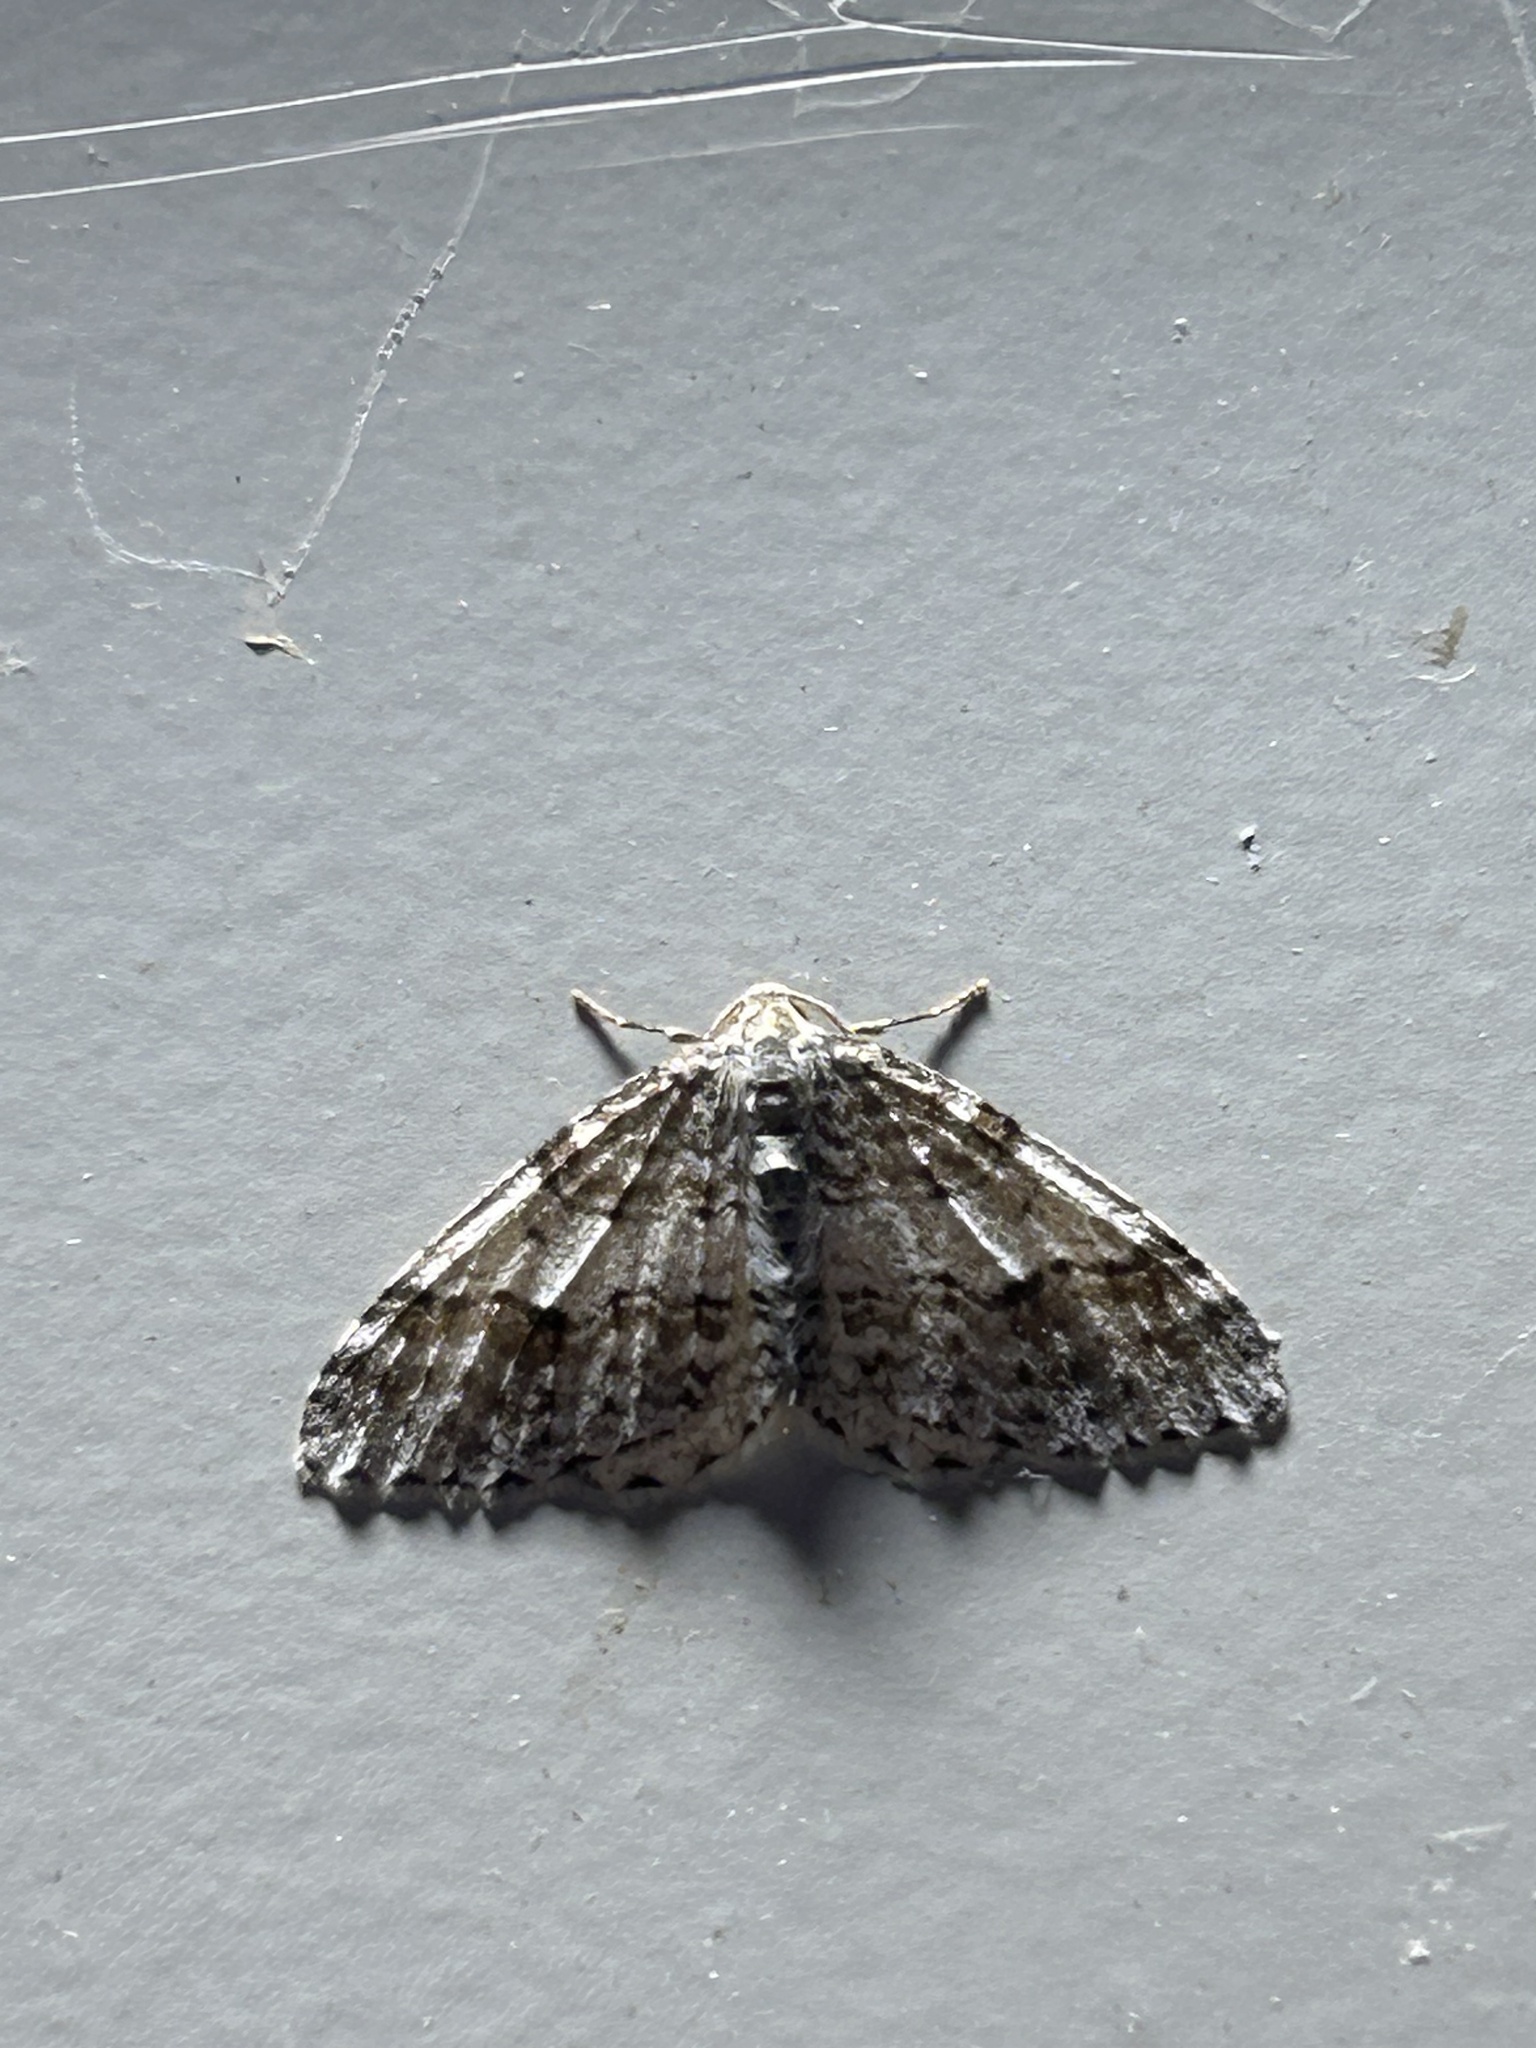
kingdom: Animalia
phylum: Arthropoda
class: Insecta
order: Lepidoptera
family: Geometridae
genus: Venusia
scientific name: Venusia cambrica
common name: Welsh wave
